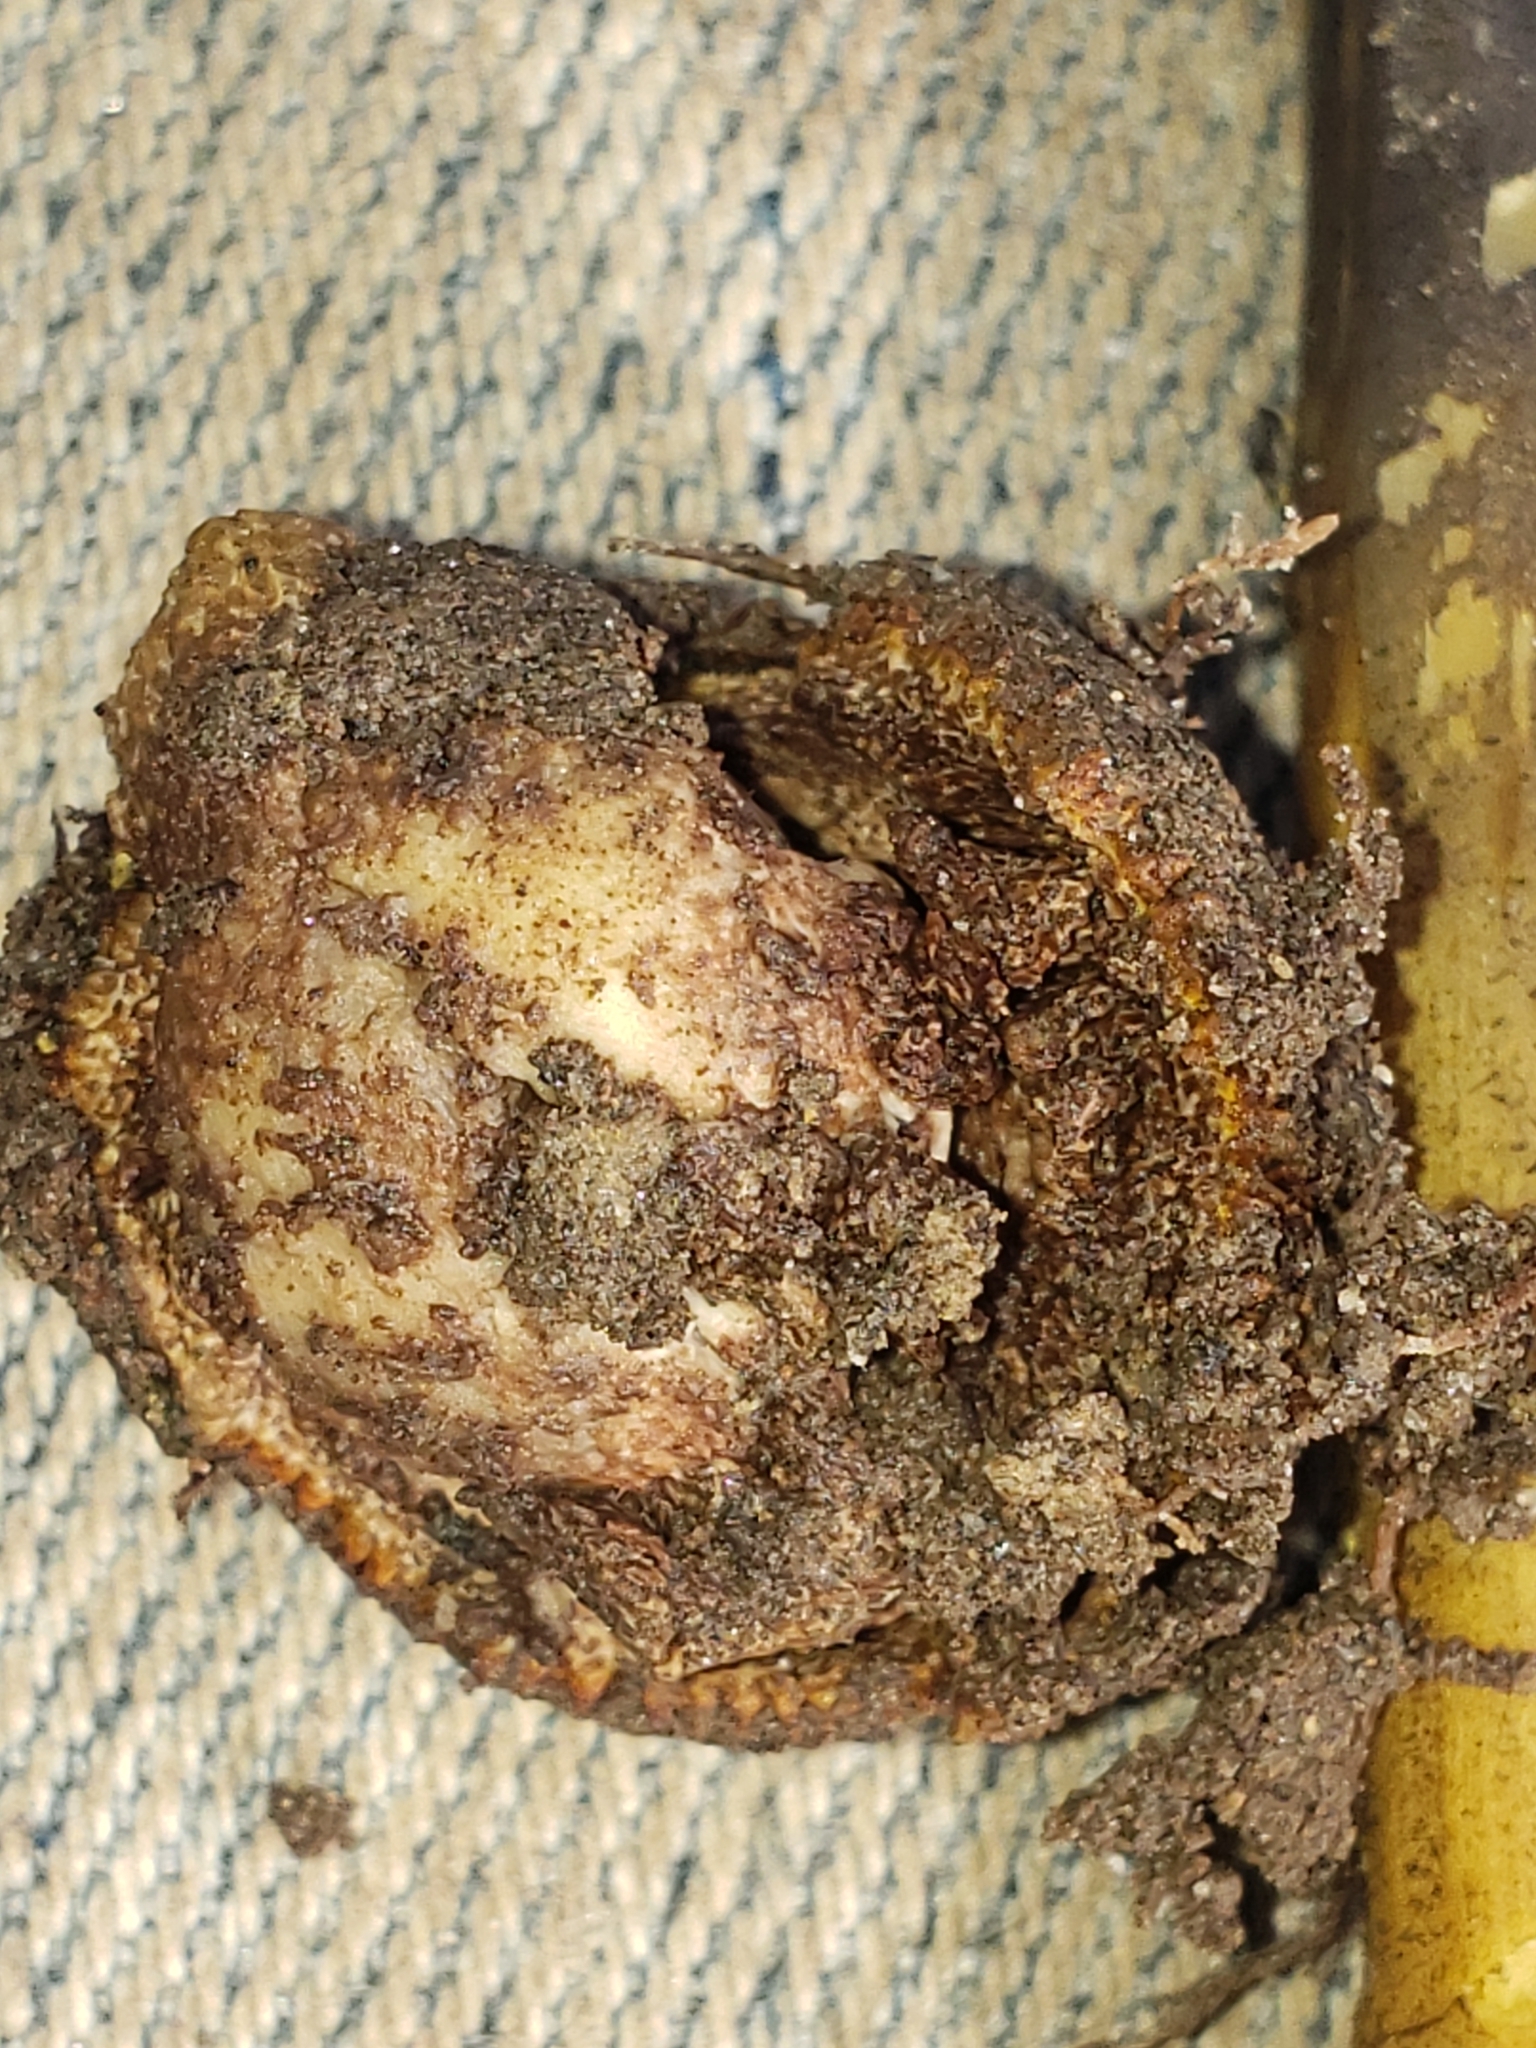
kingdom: Fungi
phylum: Ascomycota
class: Sordariomycetes
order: Hypocreales
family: Ophiocordycipitaceae
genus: Tolypocladium
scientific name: Tolypocladium longisegmentatum
